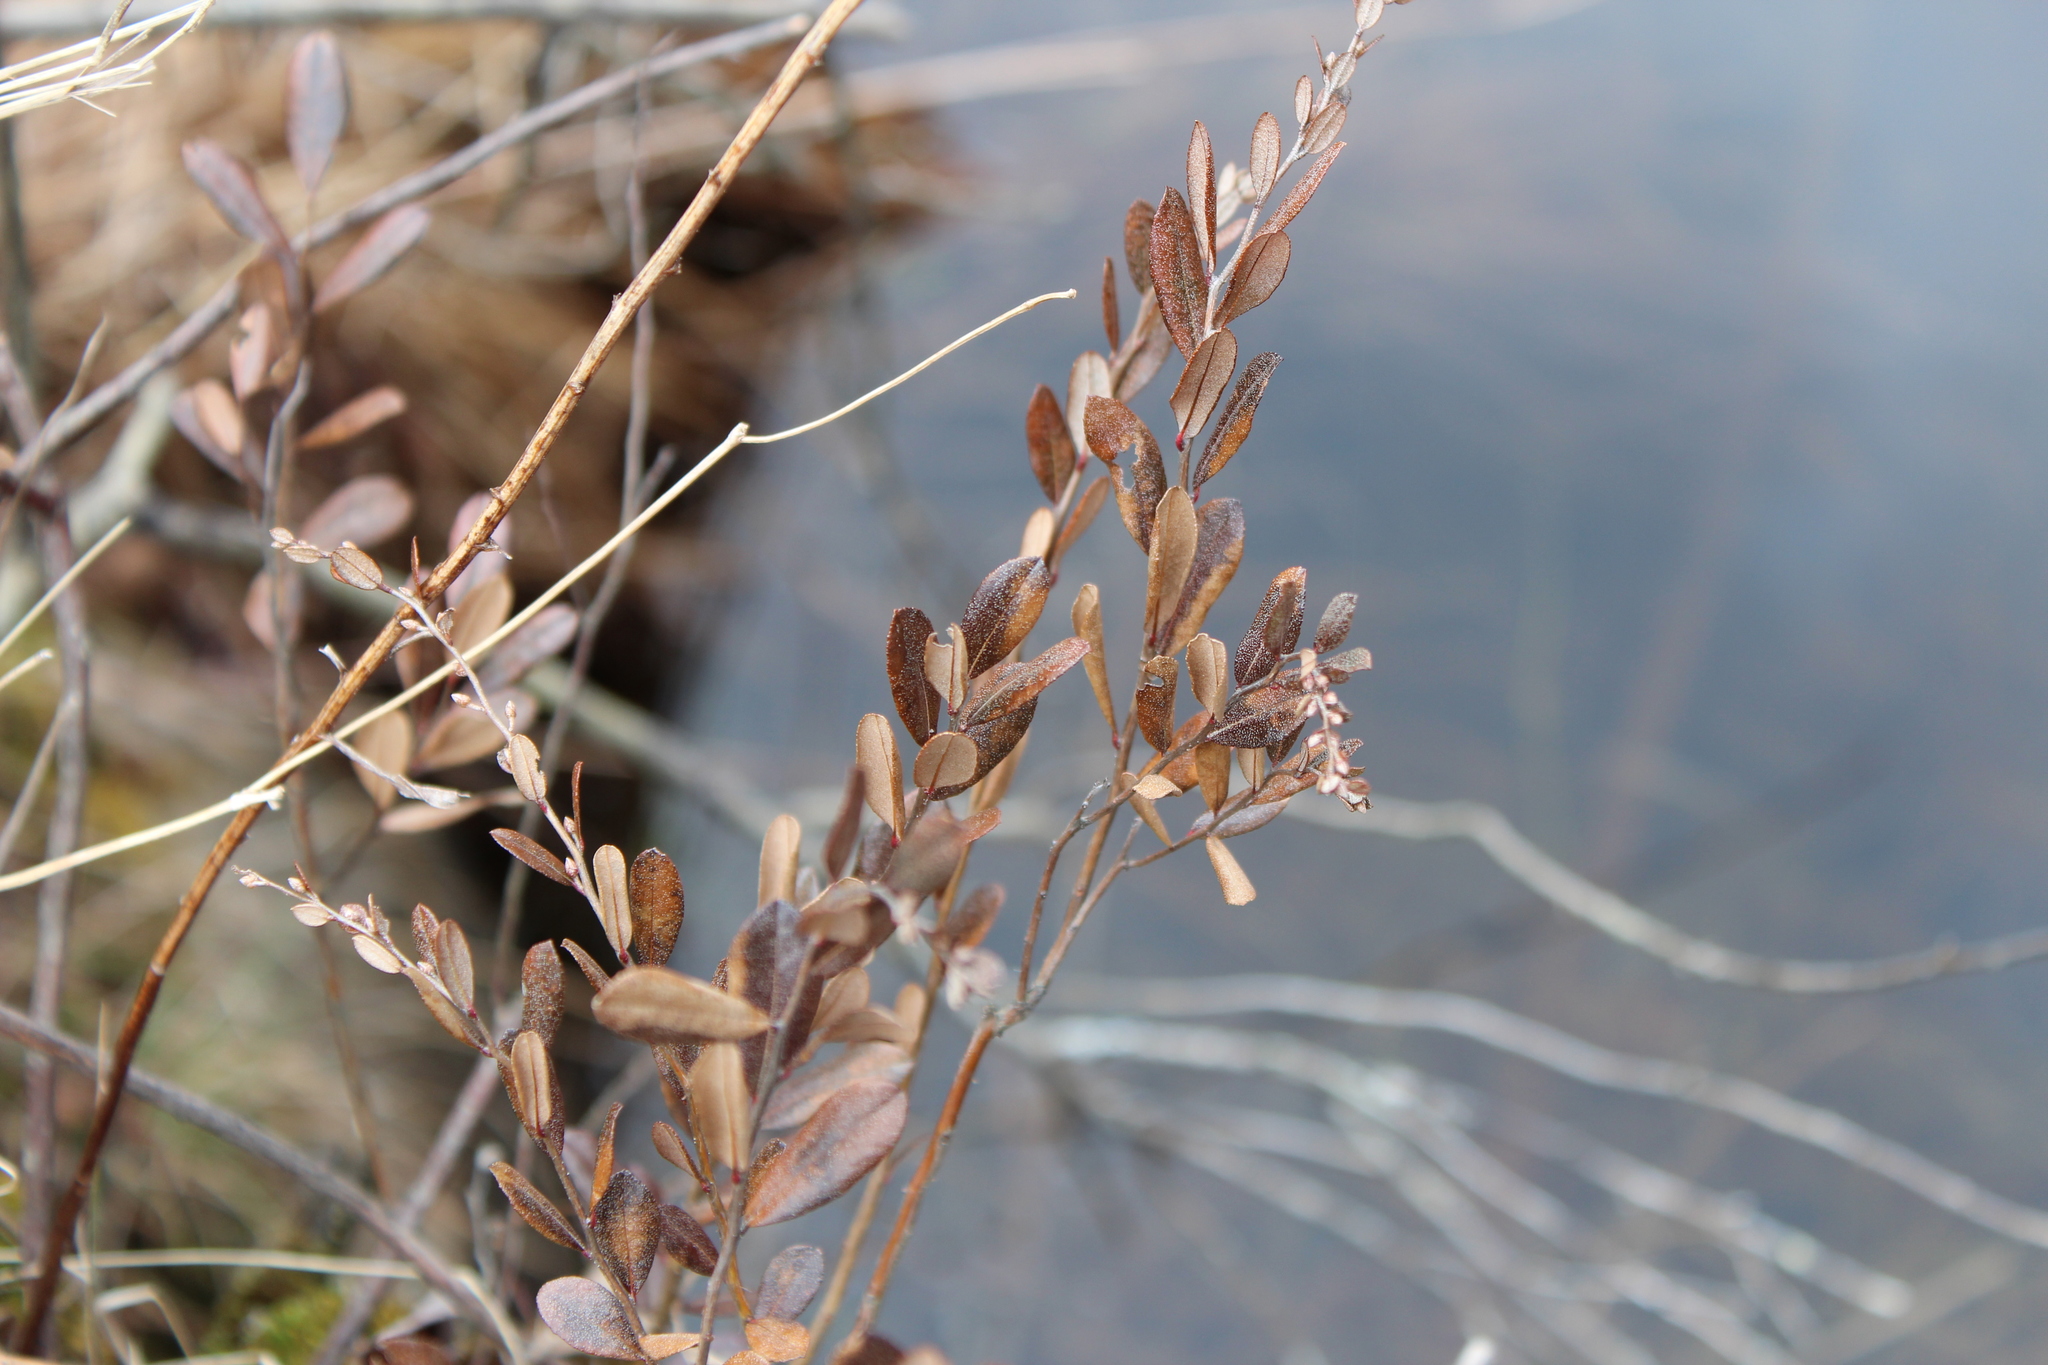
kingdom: Plantae
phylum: Tracheophyta
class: Magnoliopsida
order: Ericales
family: Ericaceae
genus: Chamaedaphne
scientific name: Chamaedaphne calyculata
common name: Leatherleaf
